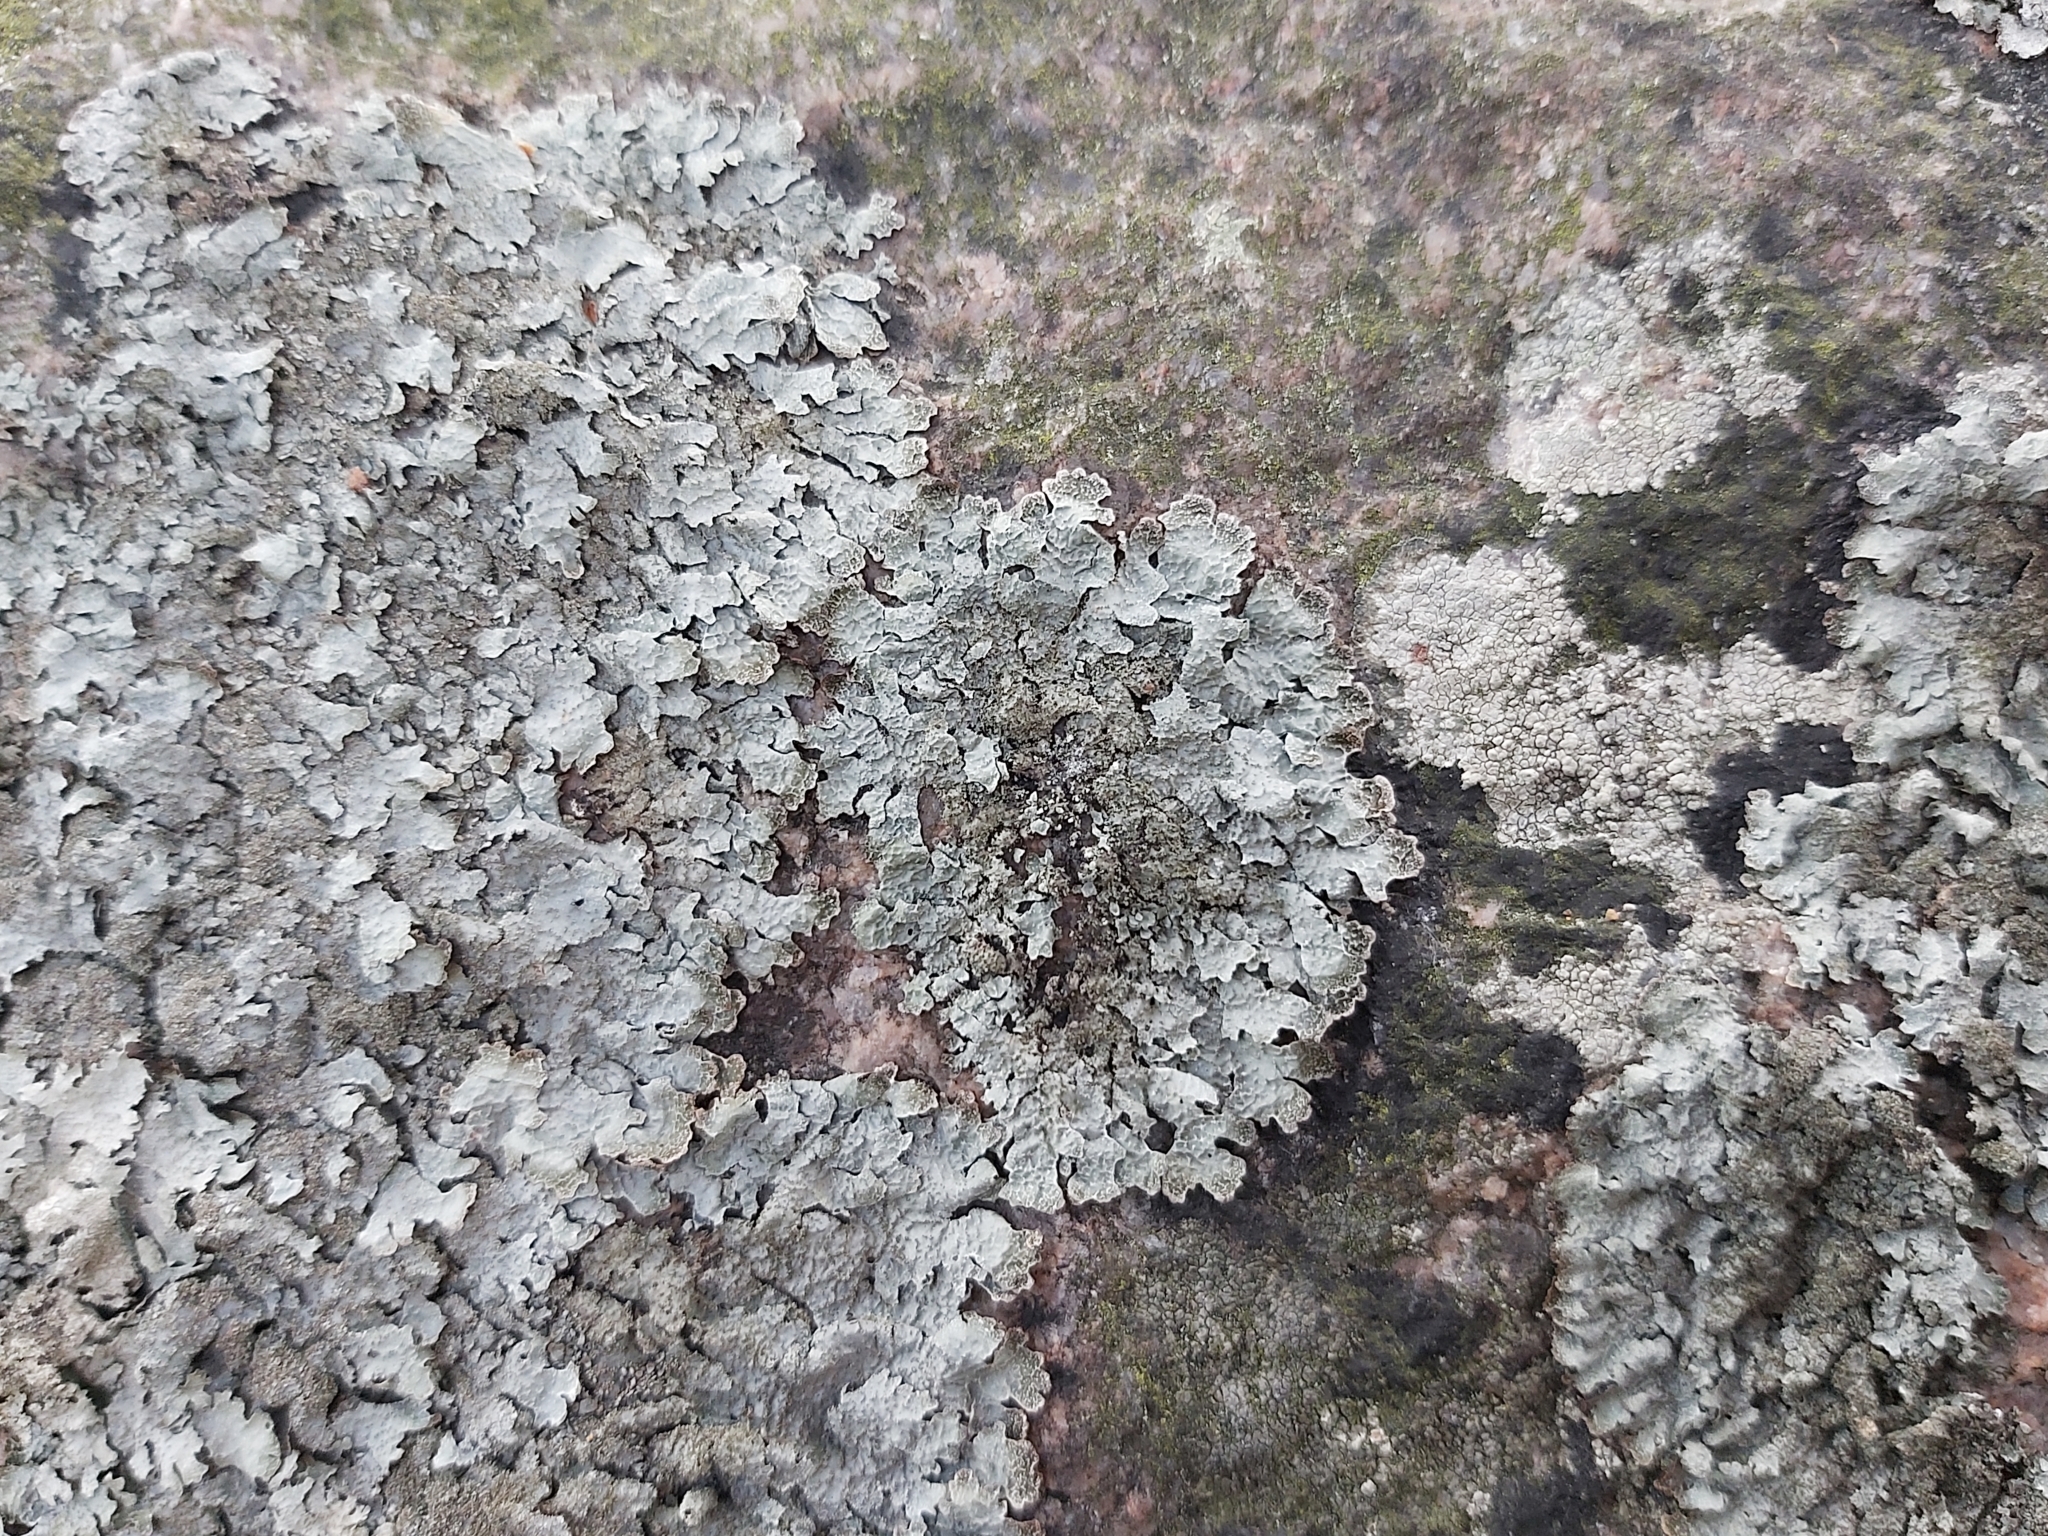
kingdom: Fungi
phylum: Ascomycota
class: Lecanoromycetes
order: Lecanorales
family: Parmeliaceae
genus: Parmelia
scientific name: Parmelia saxatilis
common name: Salted shield lichen
